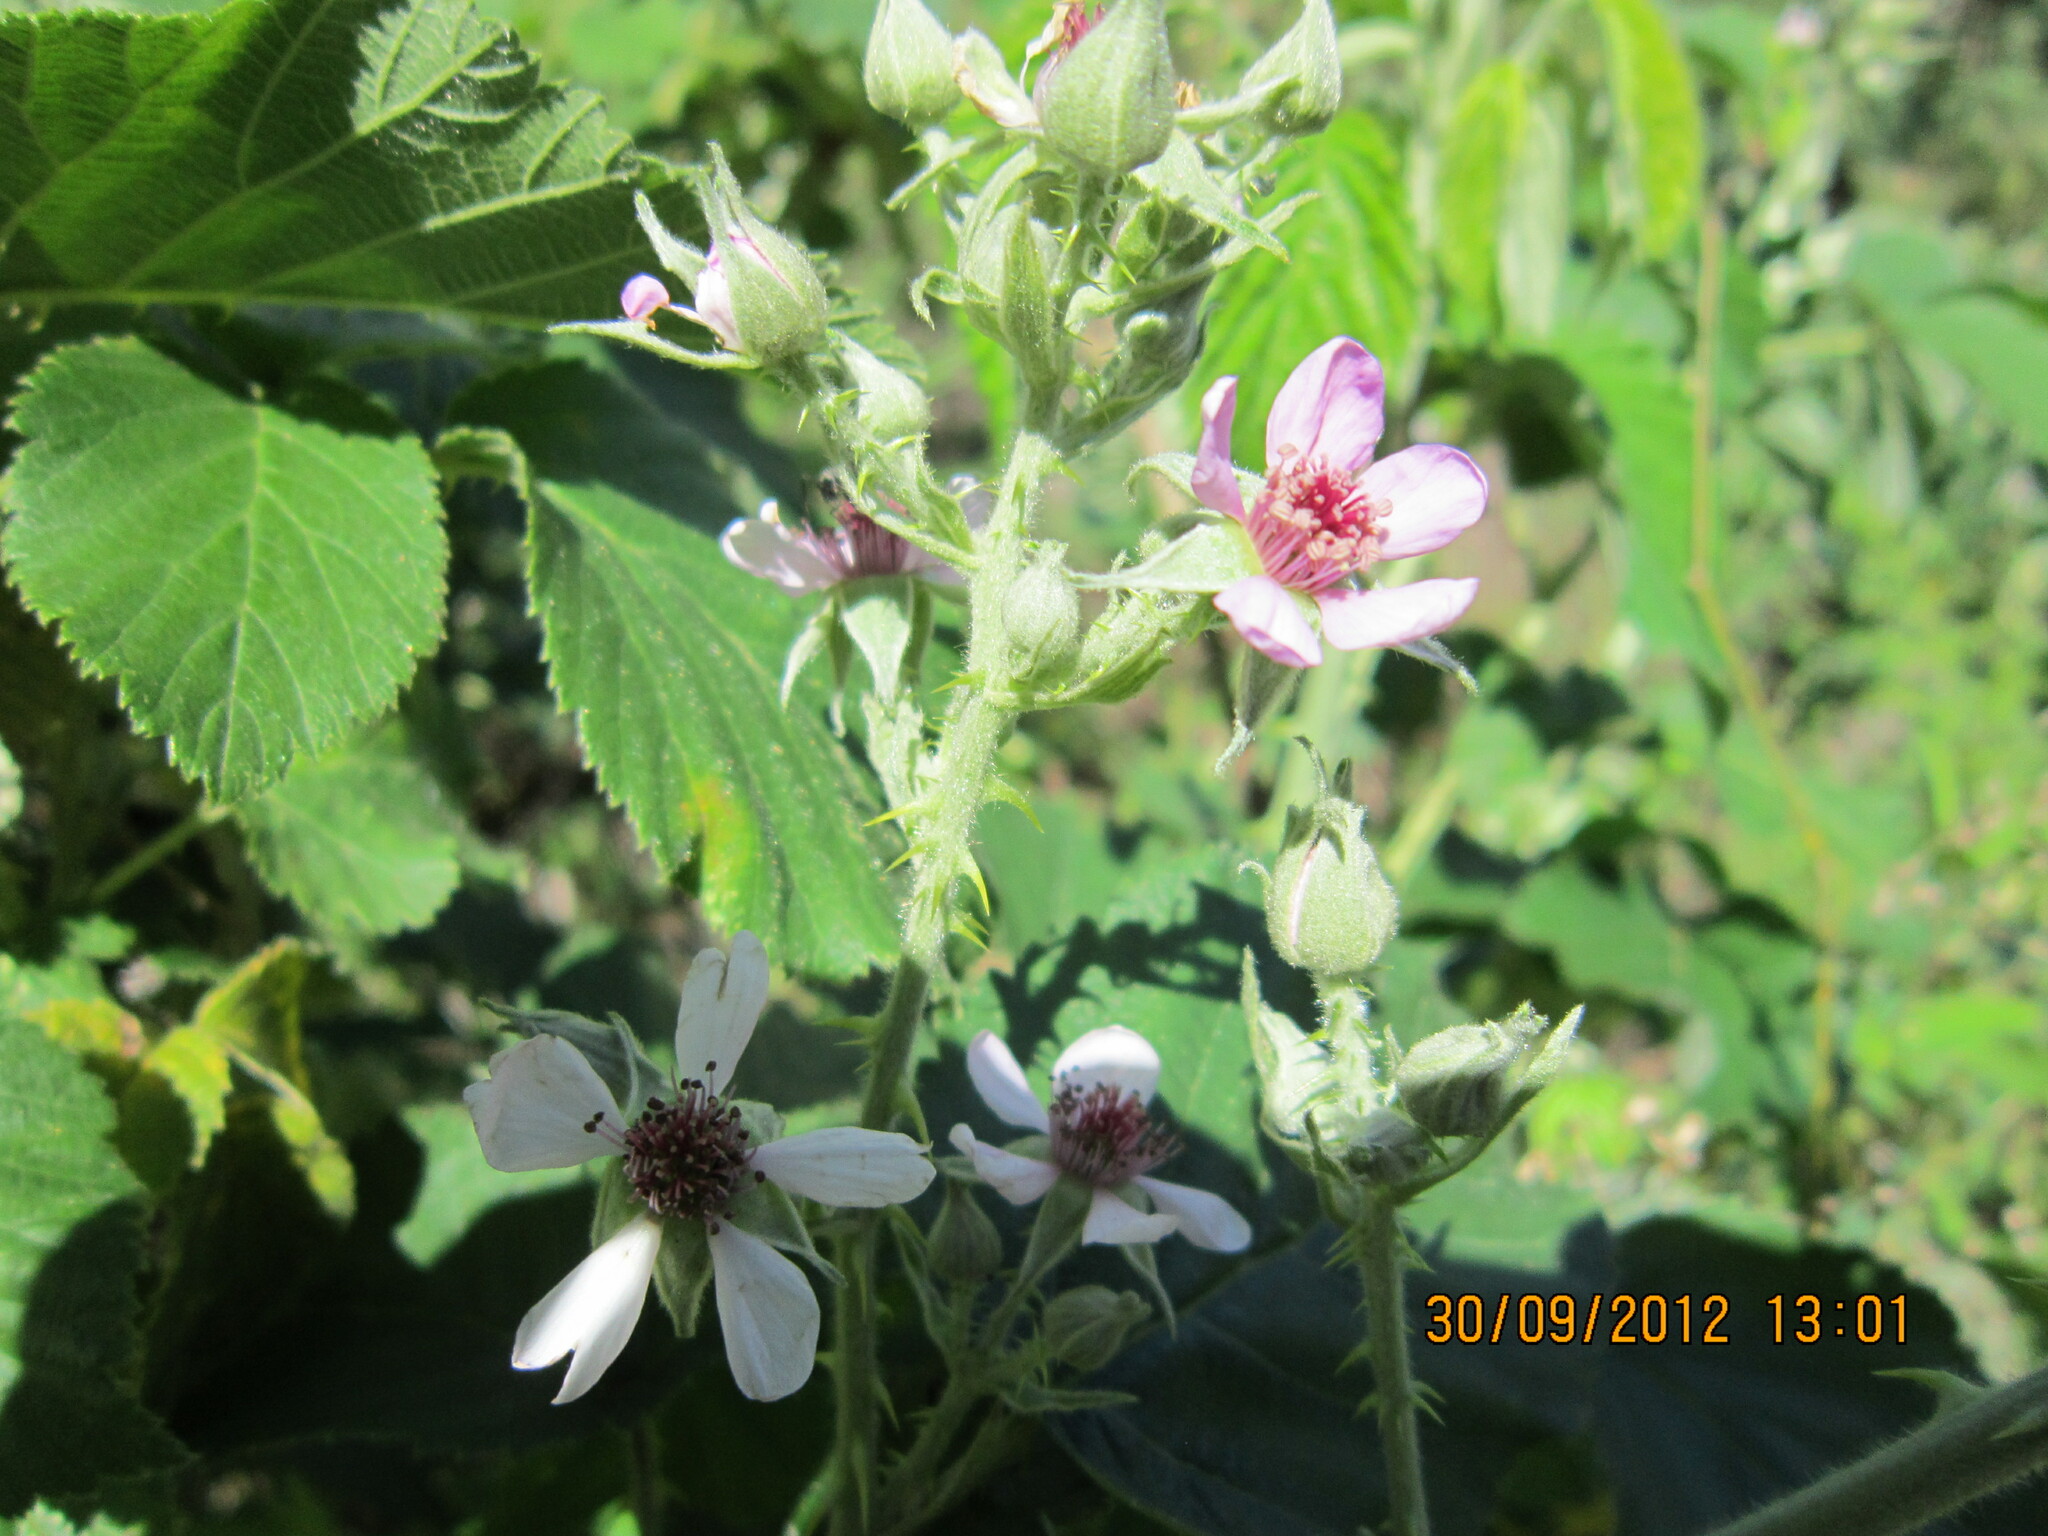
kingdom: Plantae
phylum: Tracheophyta
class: Magnoliopsida
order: Rosales
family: Rosaceae
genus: Rubus
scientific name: Rubus rigidus
